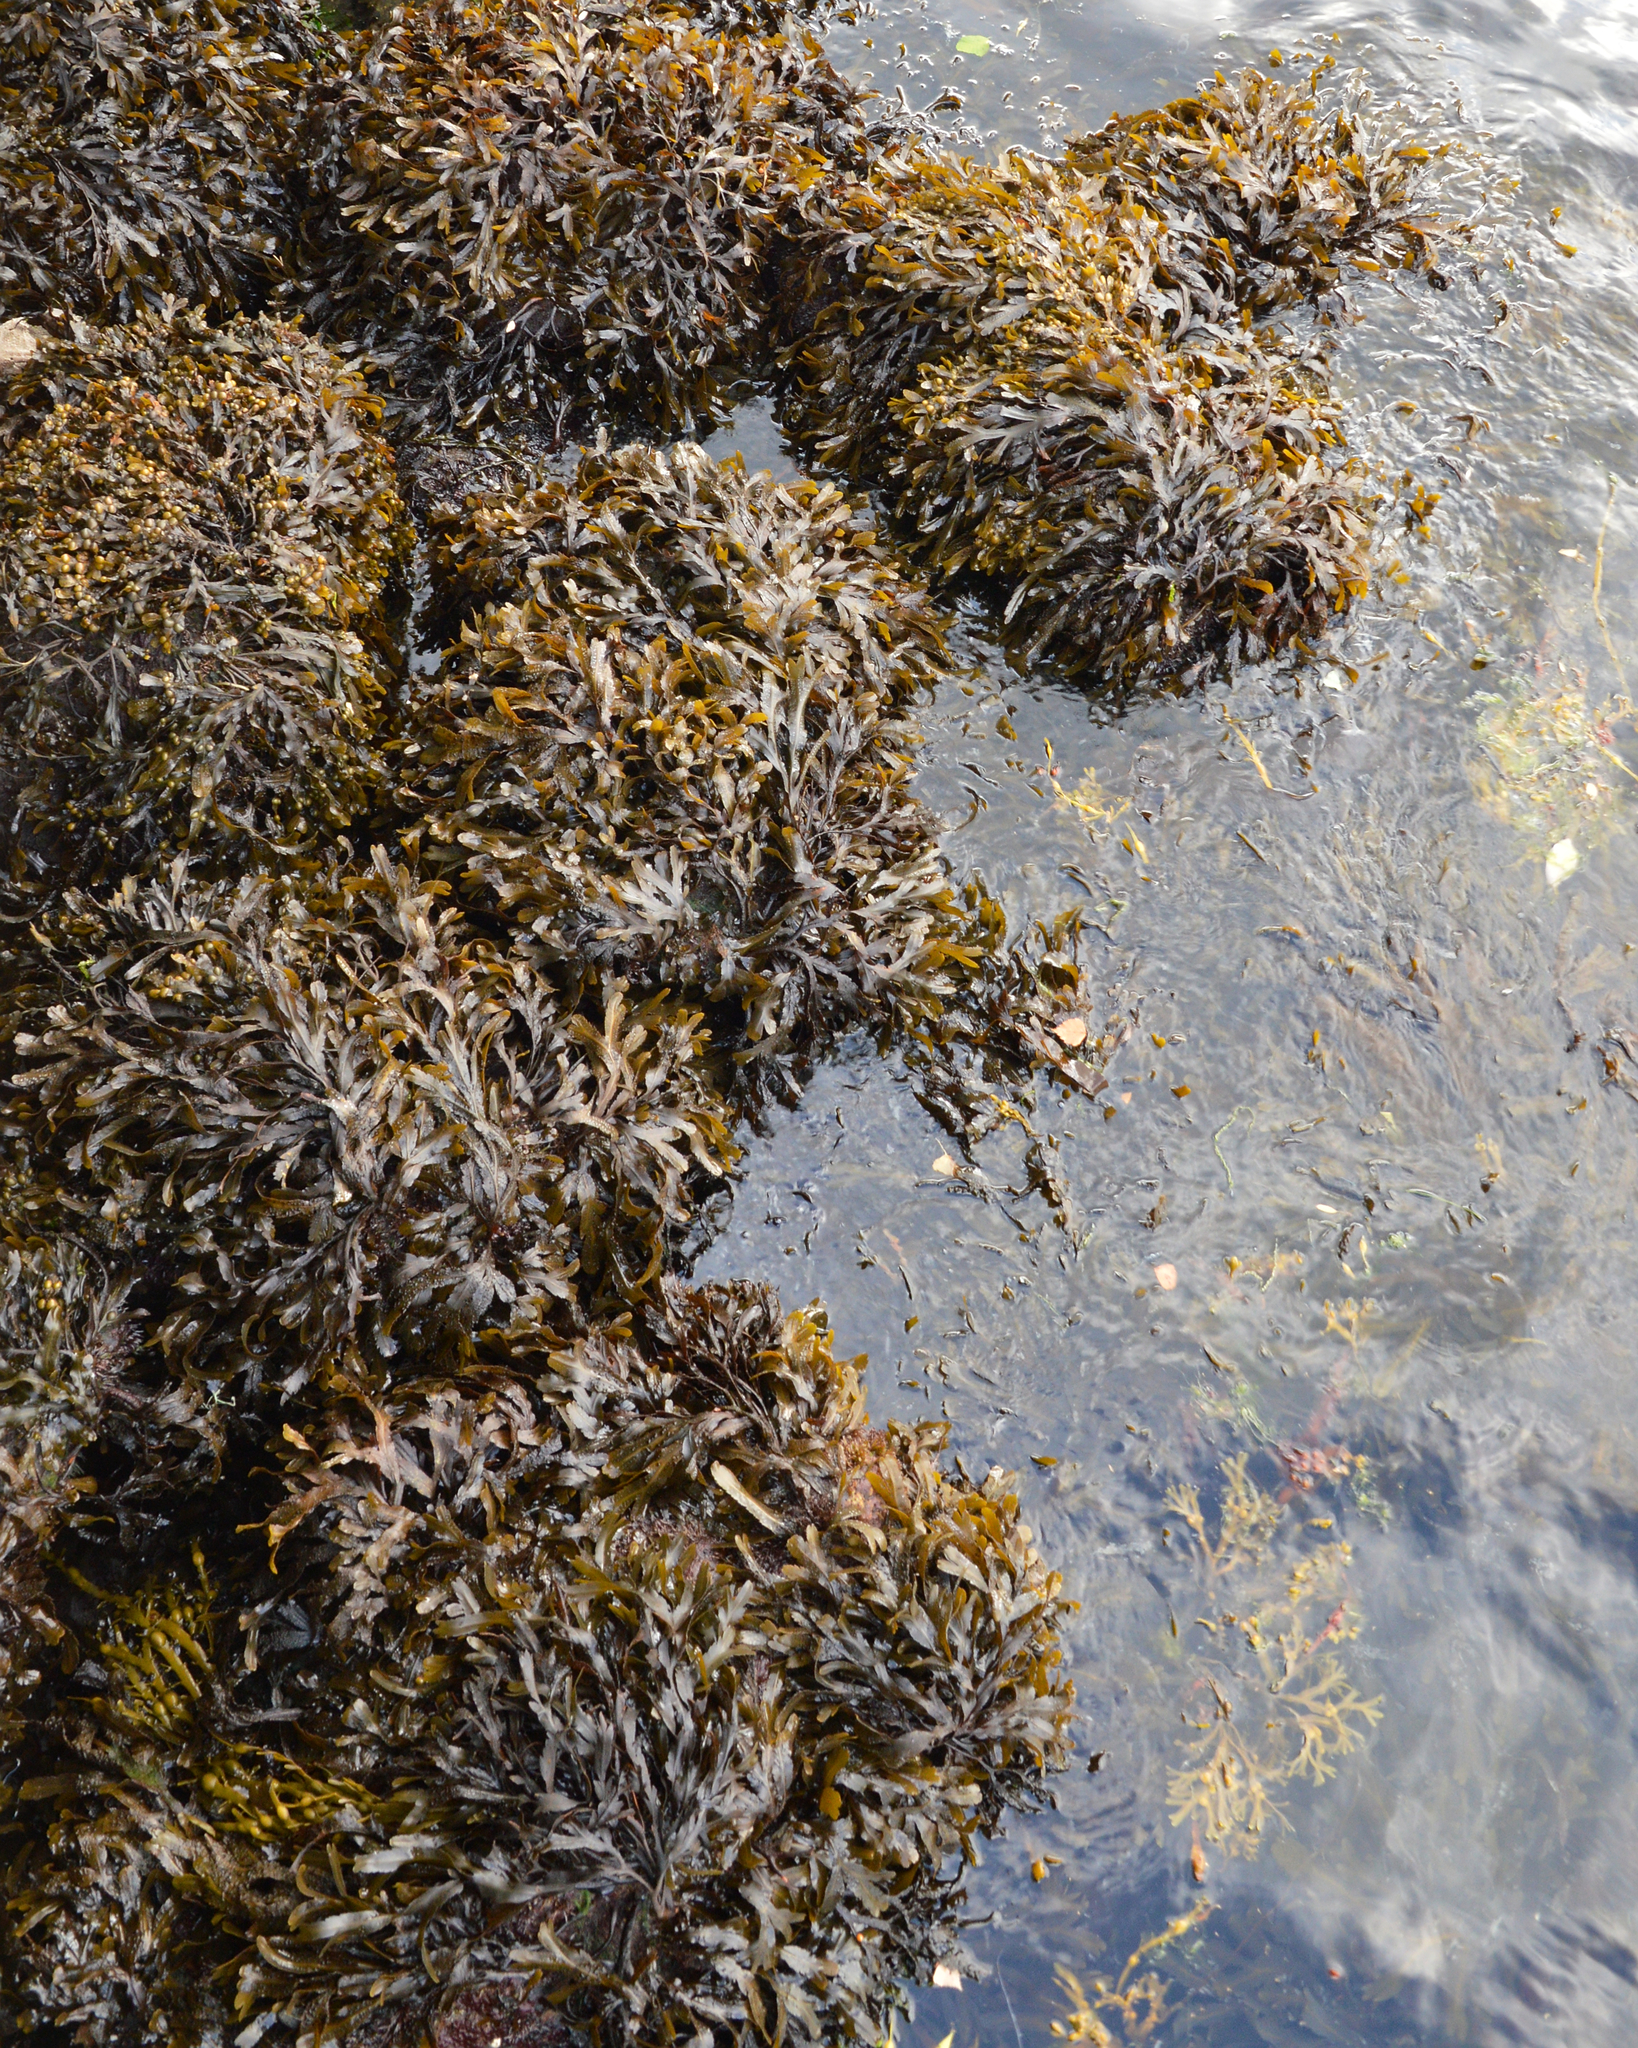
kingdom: Chromista
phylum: Ochrophyta
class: Phaeophyceae
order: Fucales
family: Fucaceae
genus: Fucus
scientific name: Fucus serratus
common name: Toothed wrack
